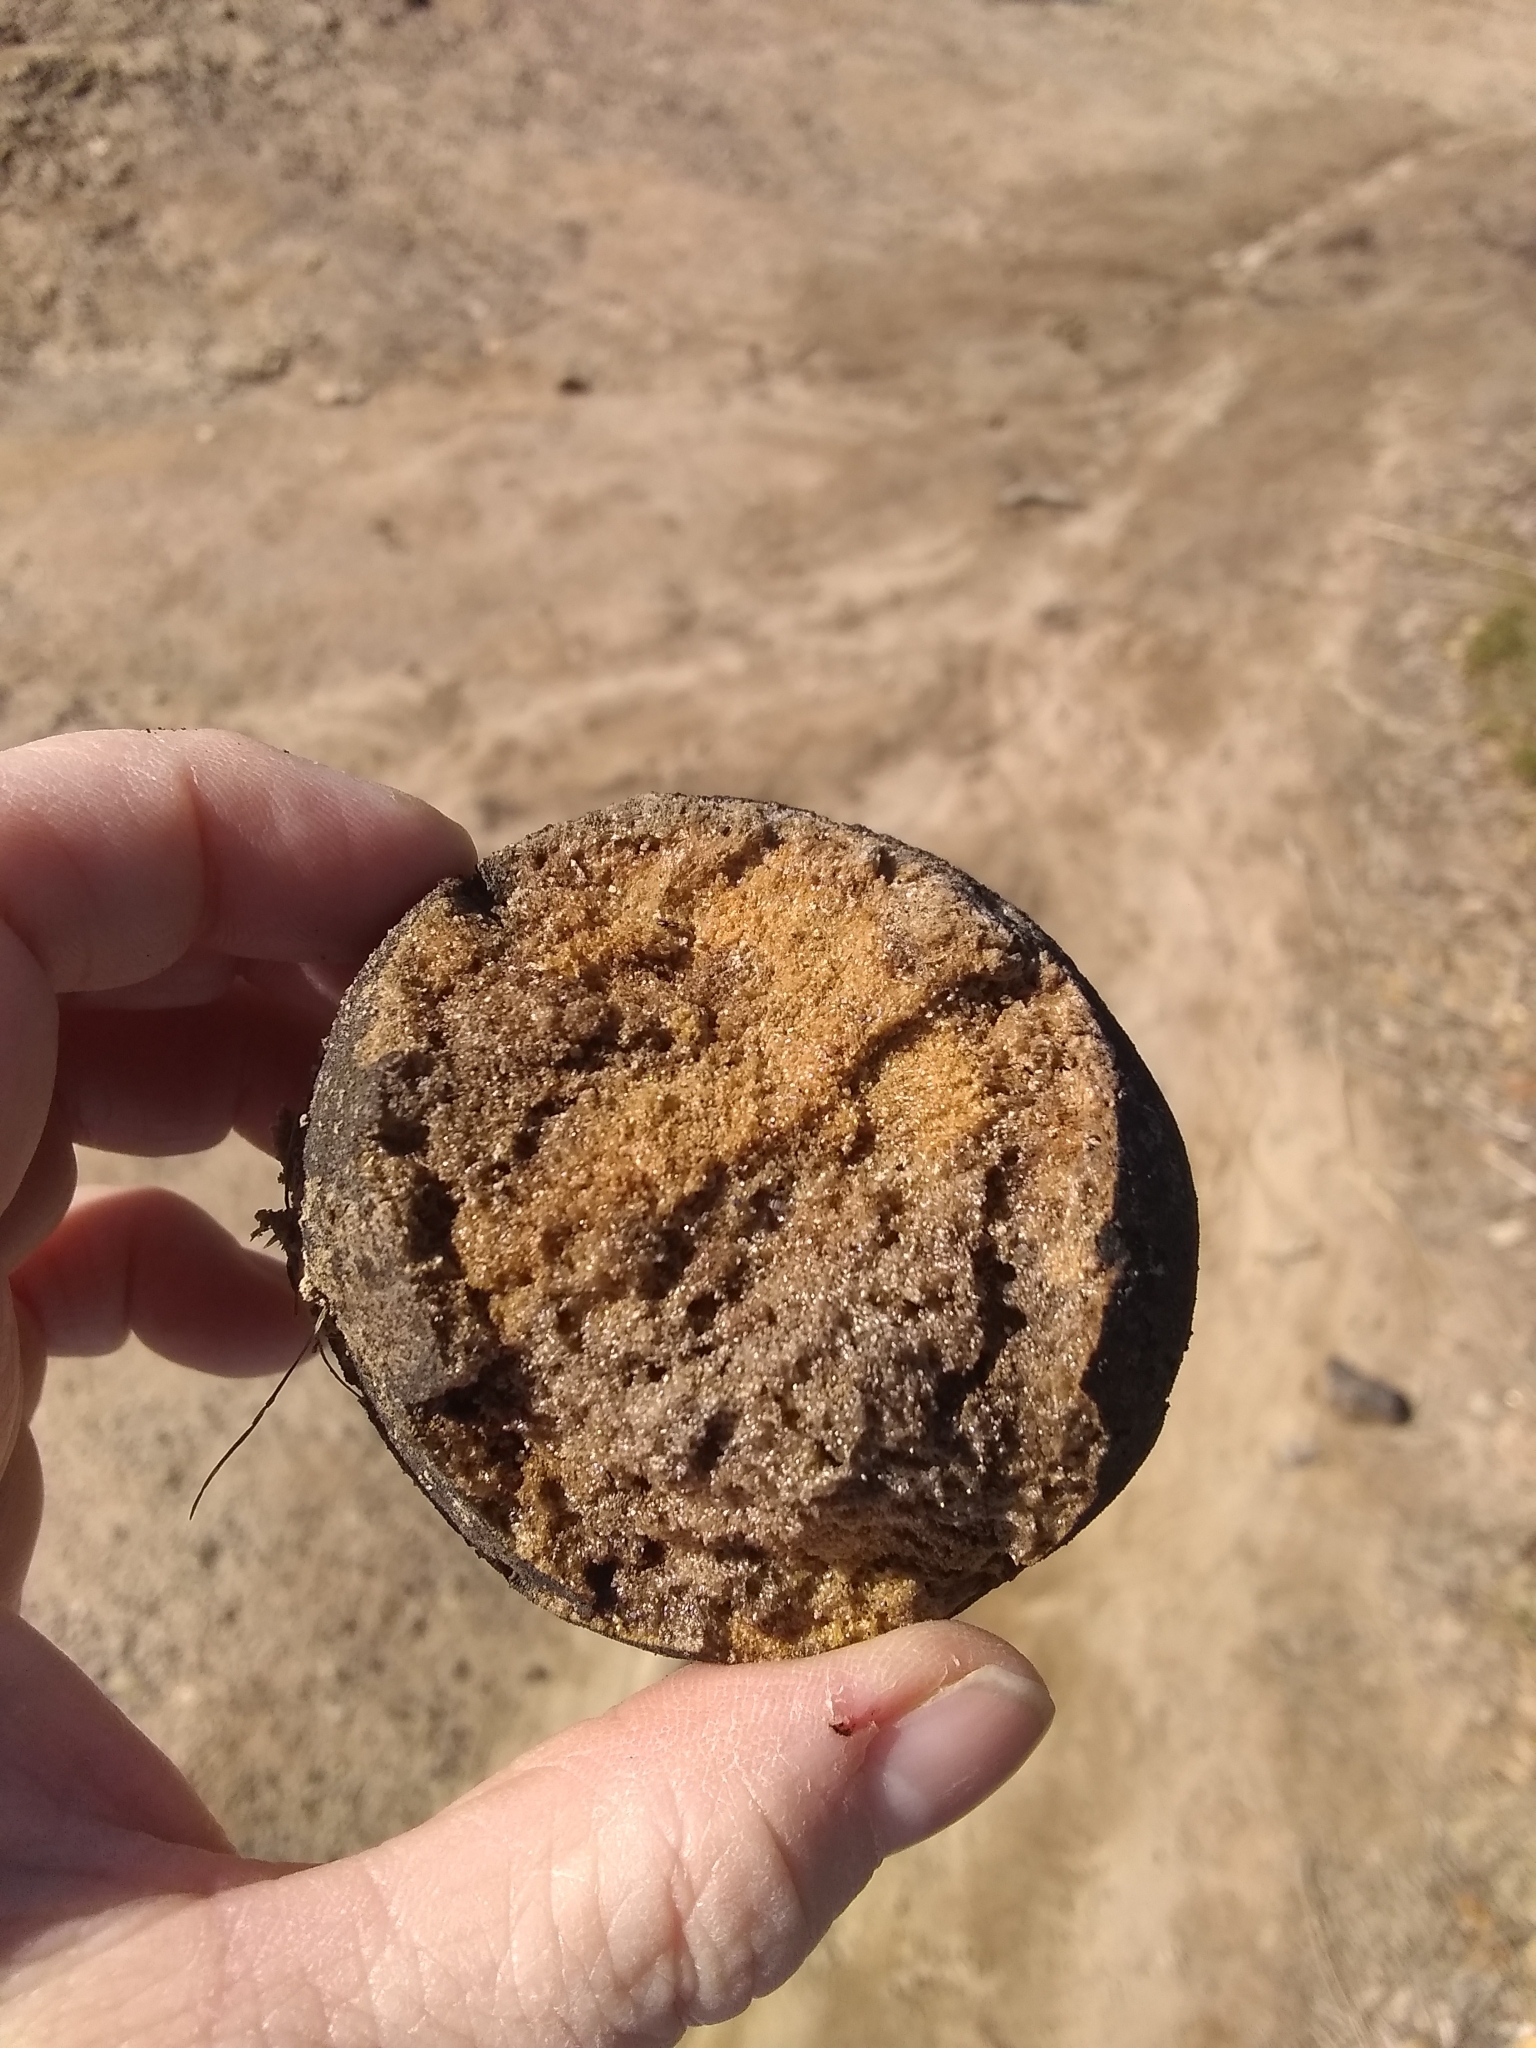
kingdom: Animalia
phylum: Arthropoda
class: Insecta
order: Hymenoptera
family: Cynipidae
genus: Andricus
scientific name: Andricus quercuscalifornicus
